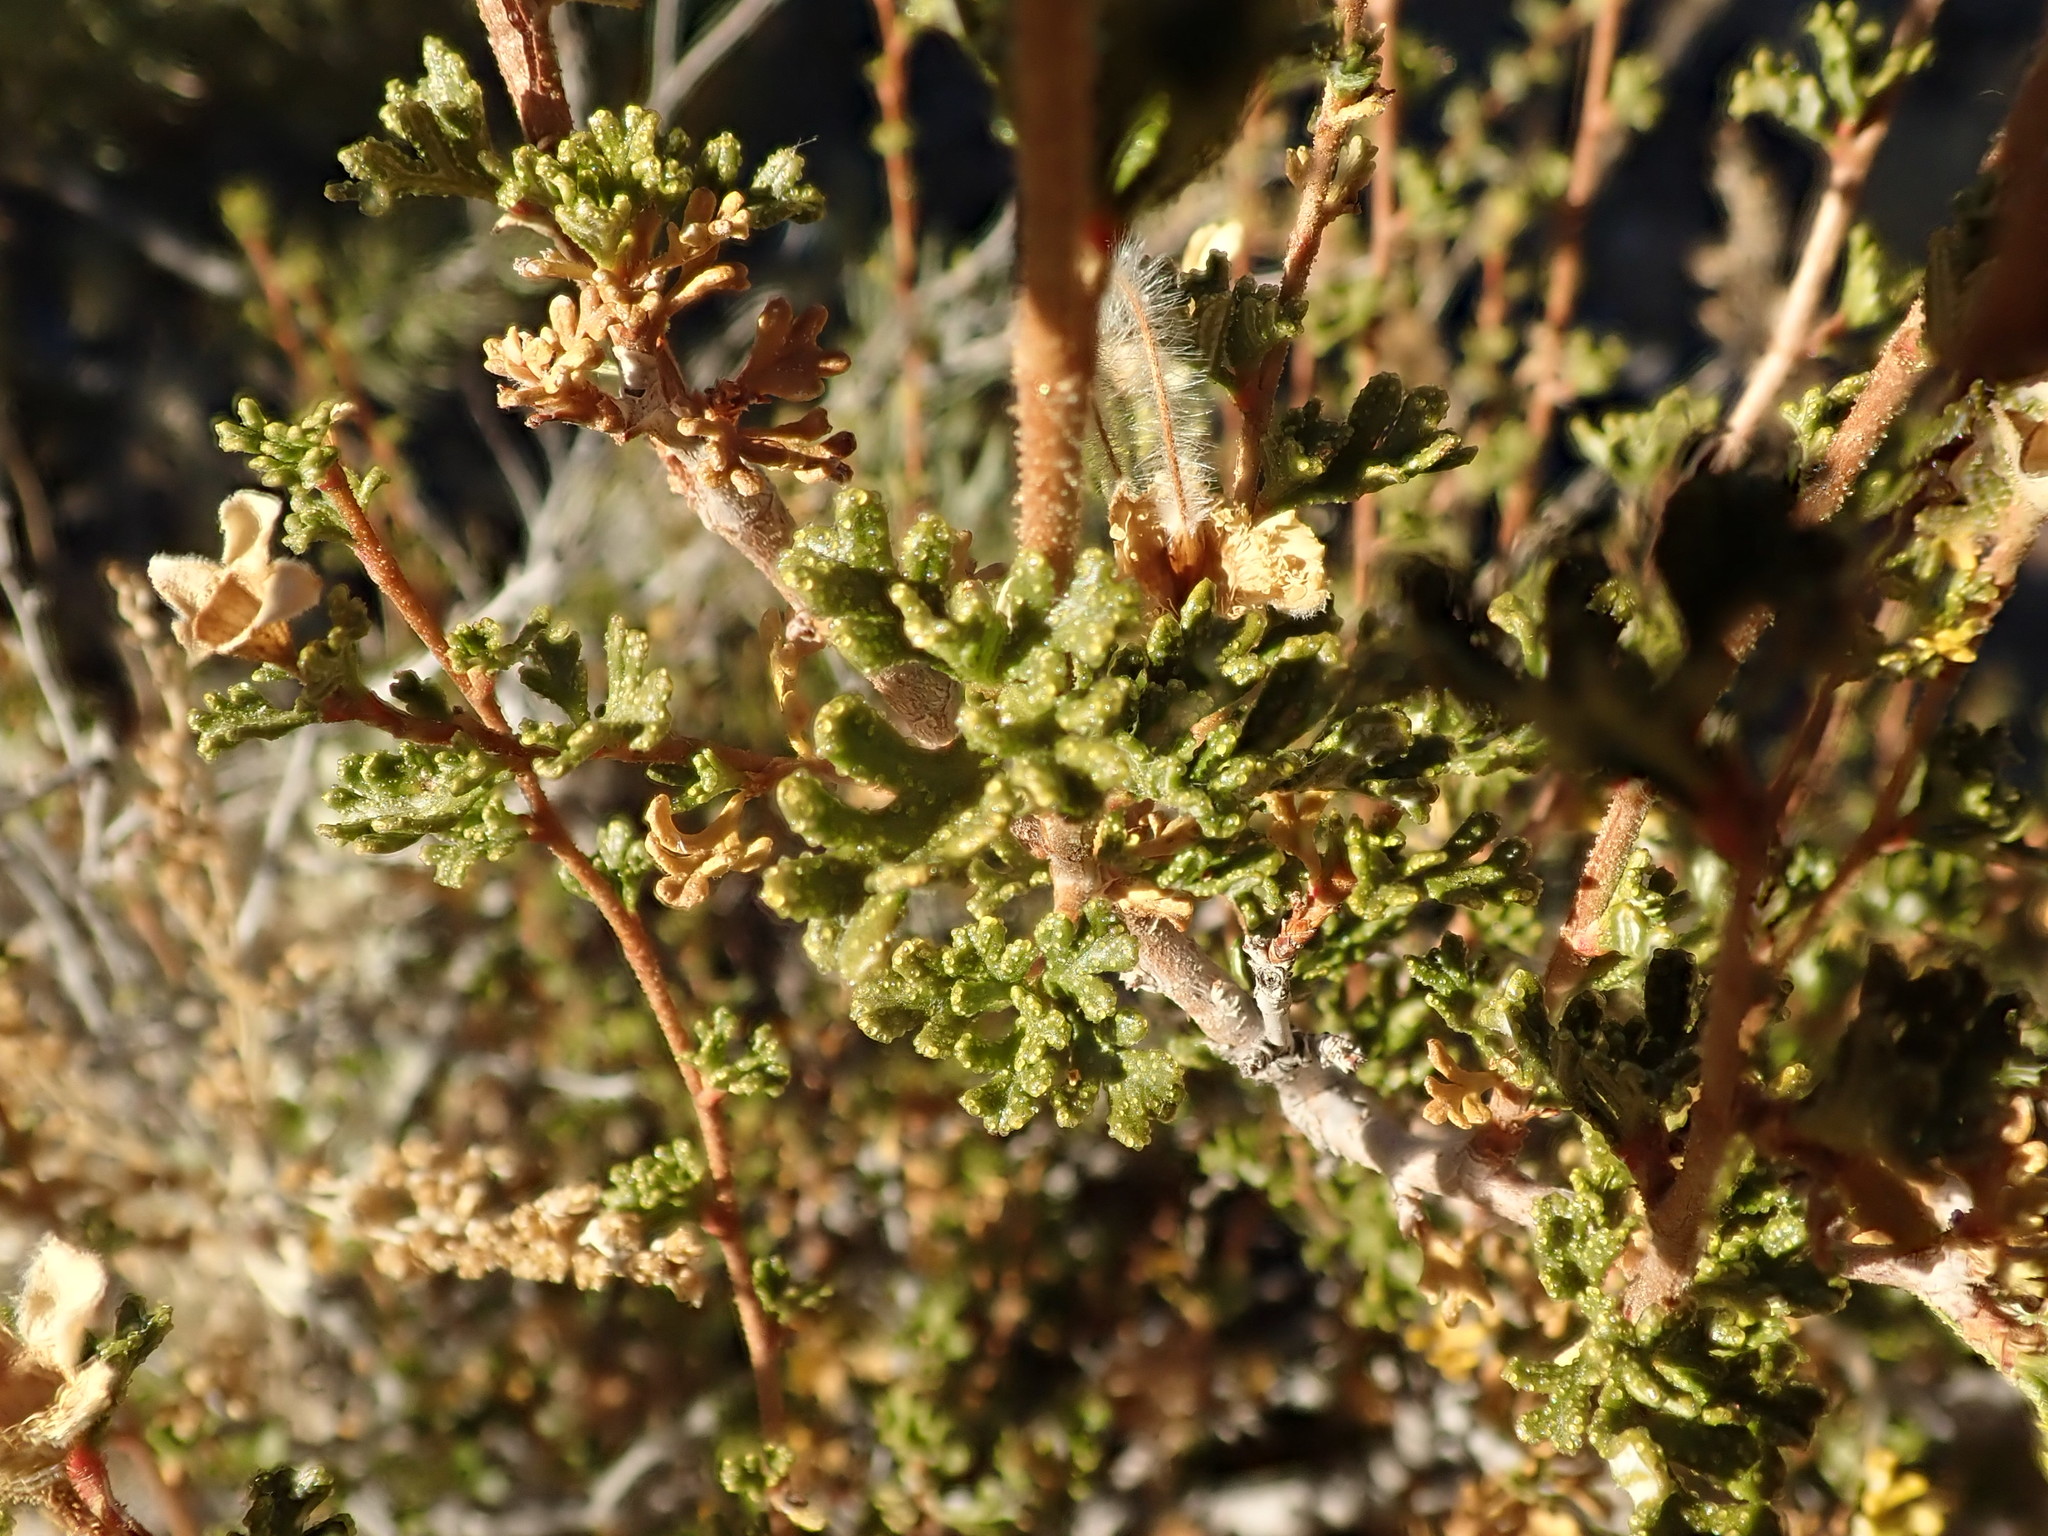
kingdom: Plantae
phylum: Tracheophyta
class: Magnoliopsida
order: Rosales
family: Rosaceae
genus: Purshia
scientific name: Purshia stansburiana
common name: Stansbury's cliffrose
